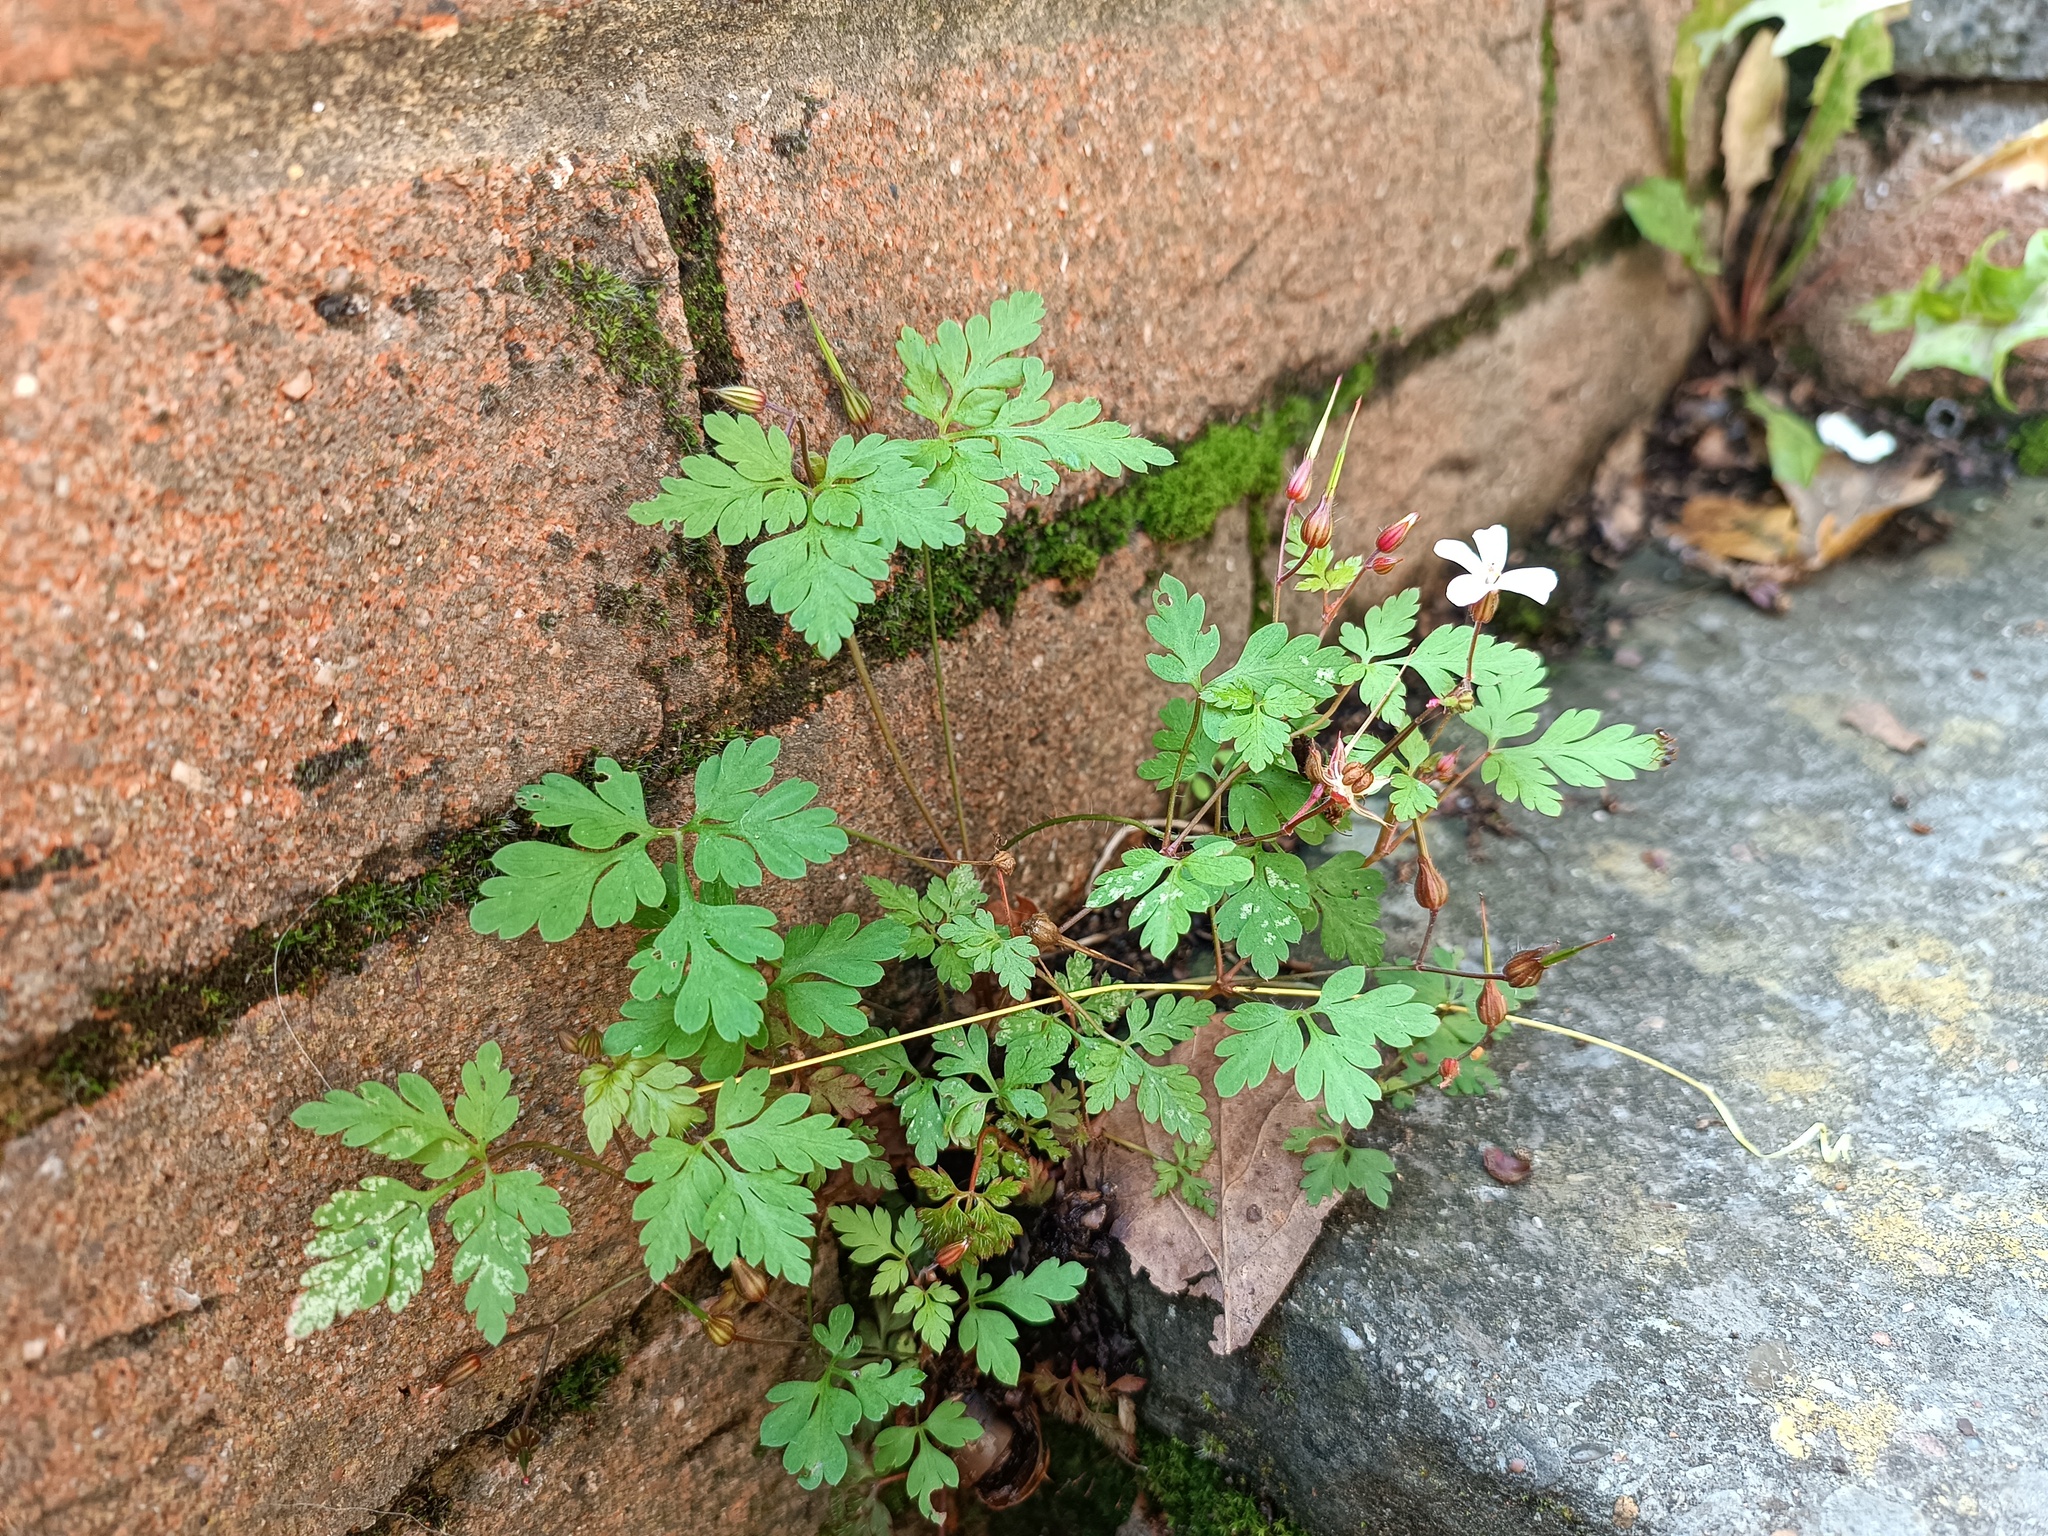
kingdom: Plantae
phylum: Tracheophyta
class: Magnoliopsida
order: Geraniales
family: Geraniaceae
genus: Geranium
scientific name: Geranium robertianum
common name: Herb-robert
